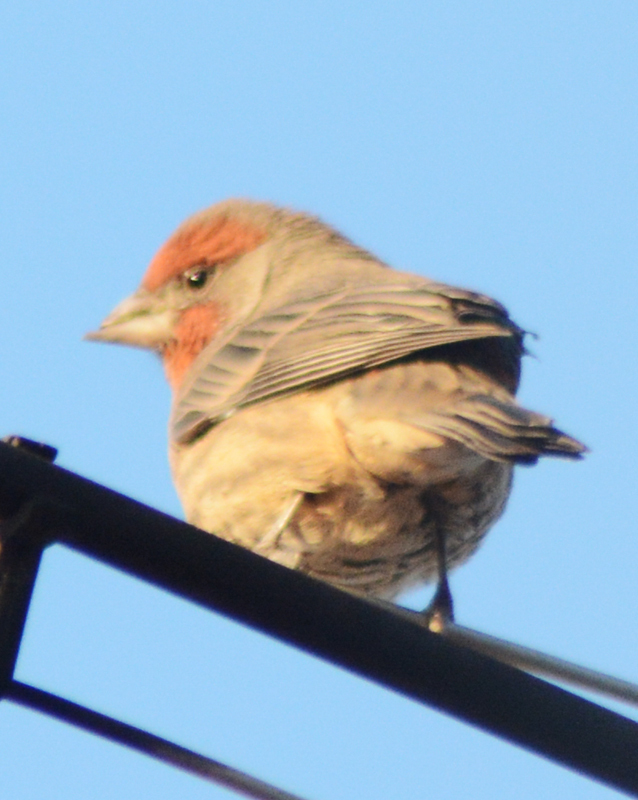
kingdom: Animalia
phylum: Chordata
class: Aves
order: Passeriformes
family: Fringillidae
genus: Haemorhous
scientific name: Haemorhous mexicanus
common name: House finch
